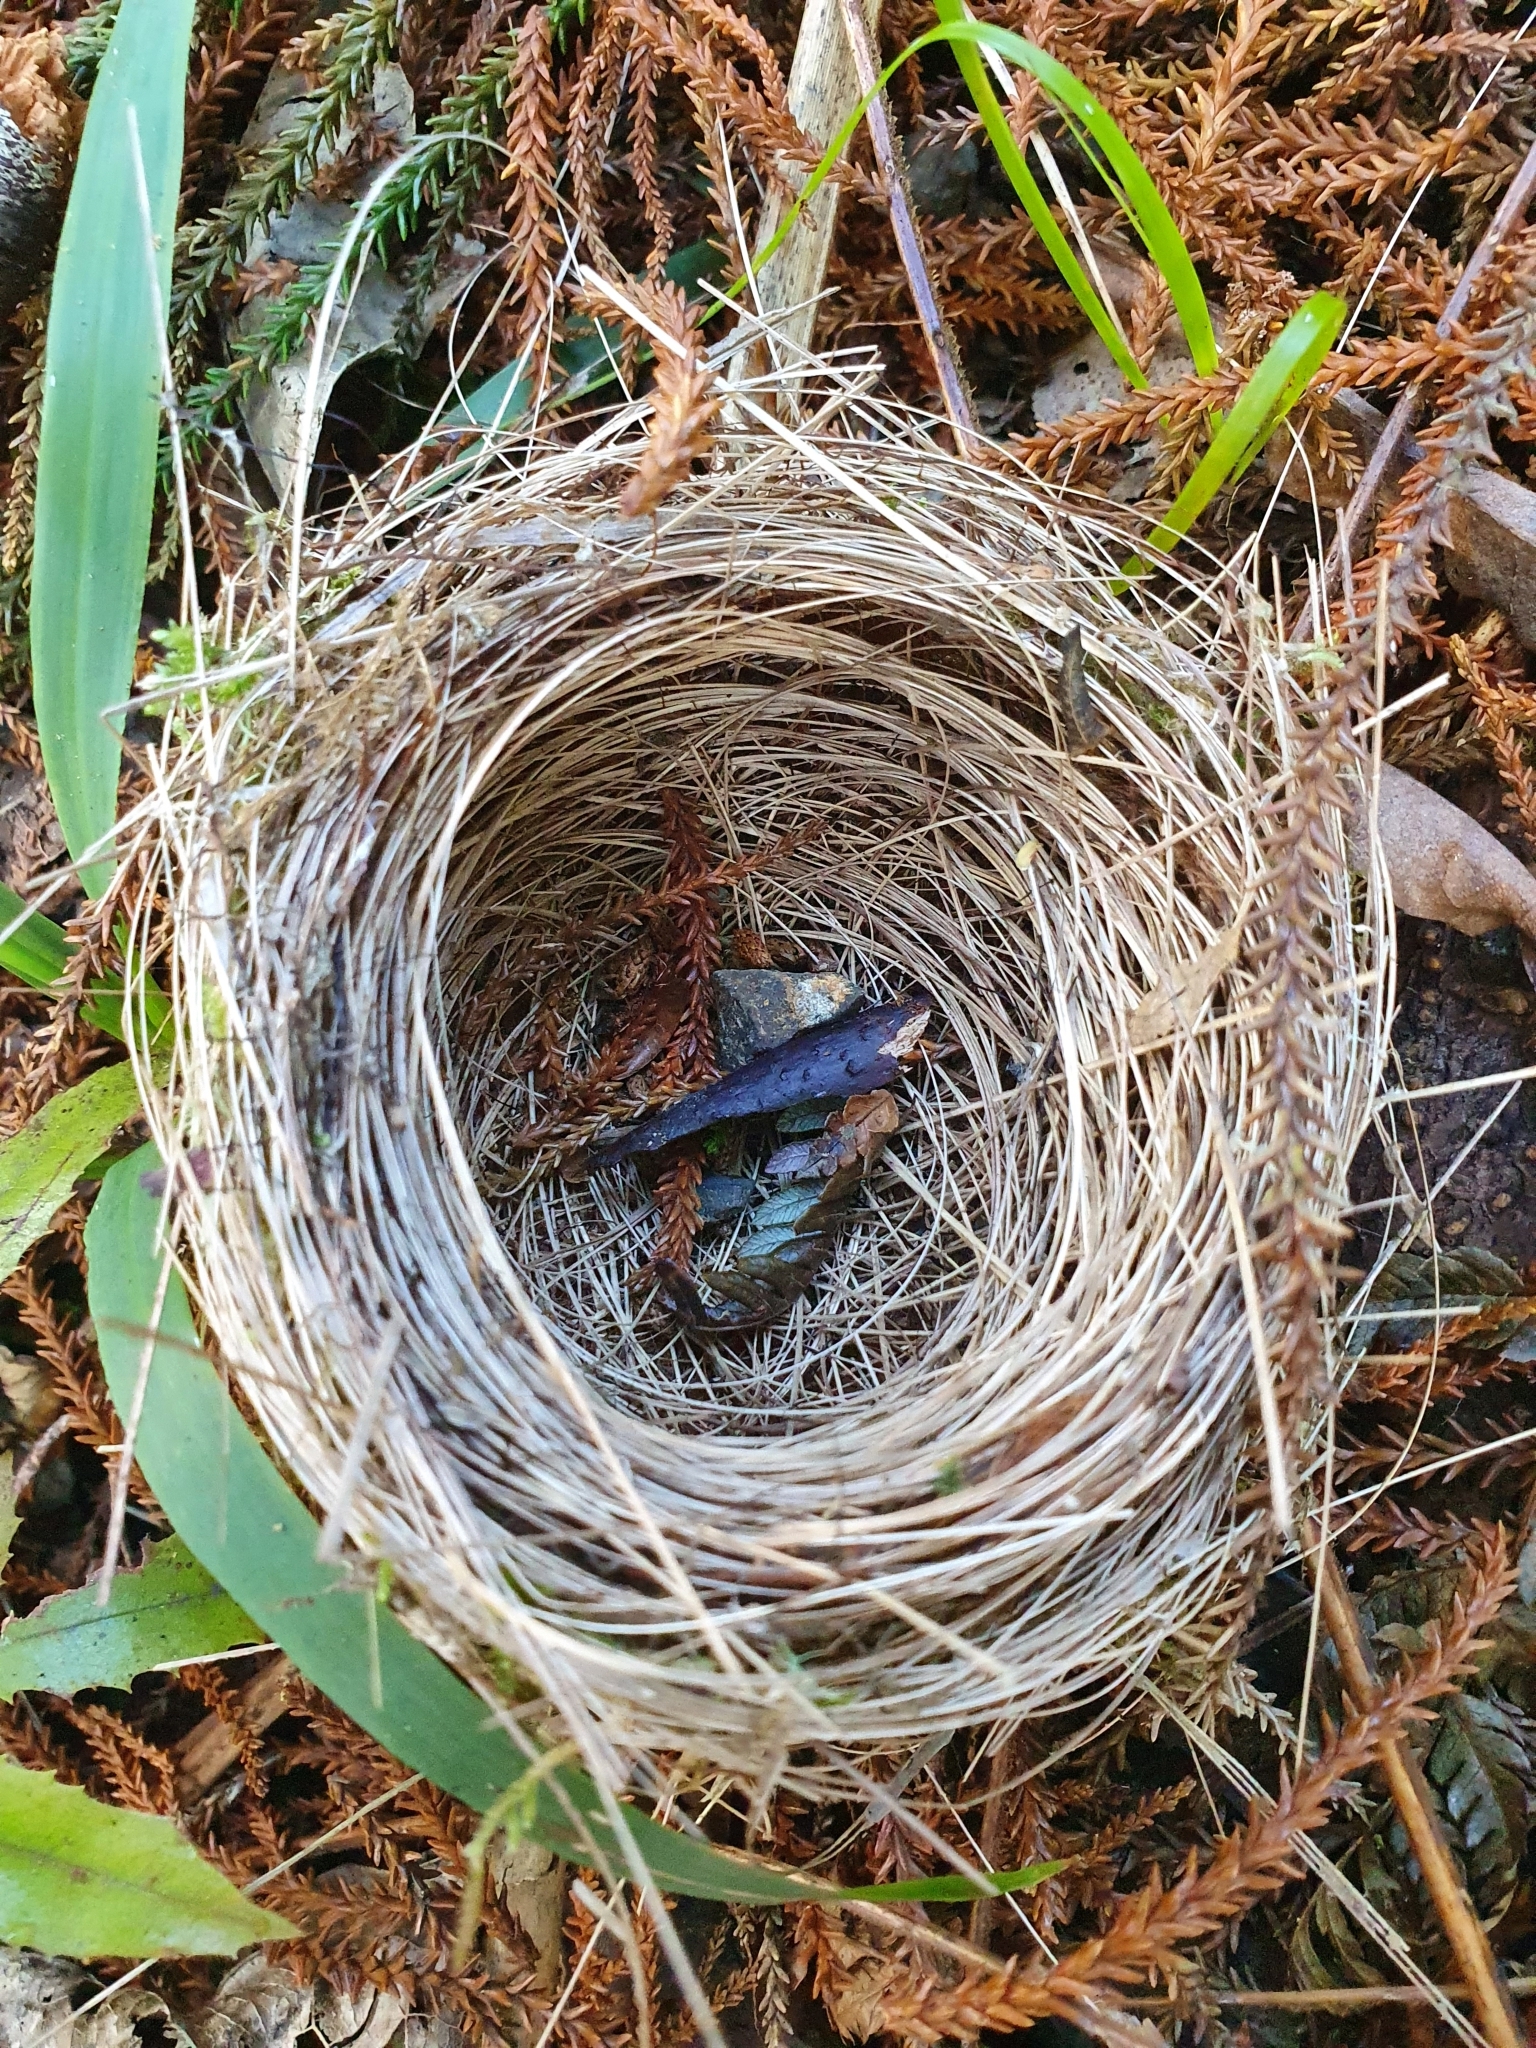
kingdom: Animalia
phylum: Chordata
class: Aves
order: Passeriformes
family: Zosteropidae
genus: Zosterops
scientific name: Zosterops lateralis
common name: Silvereye
